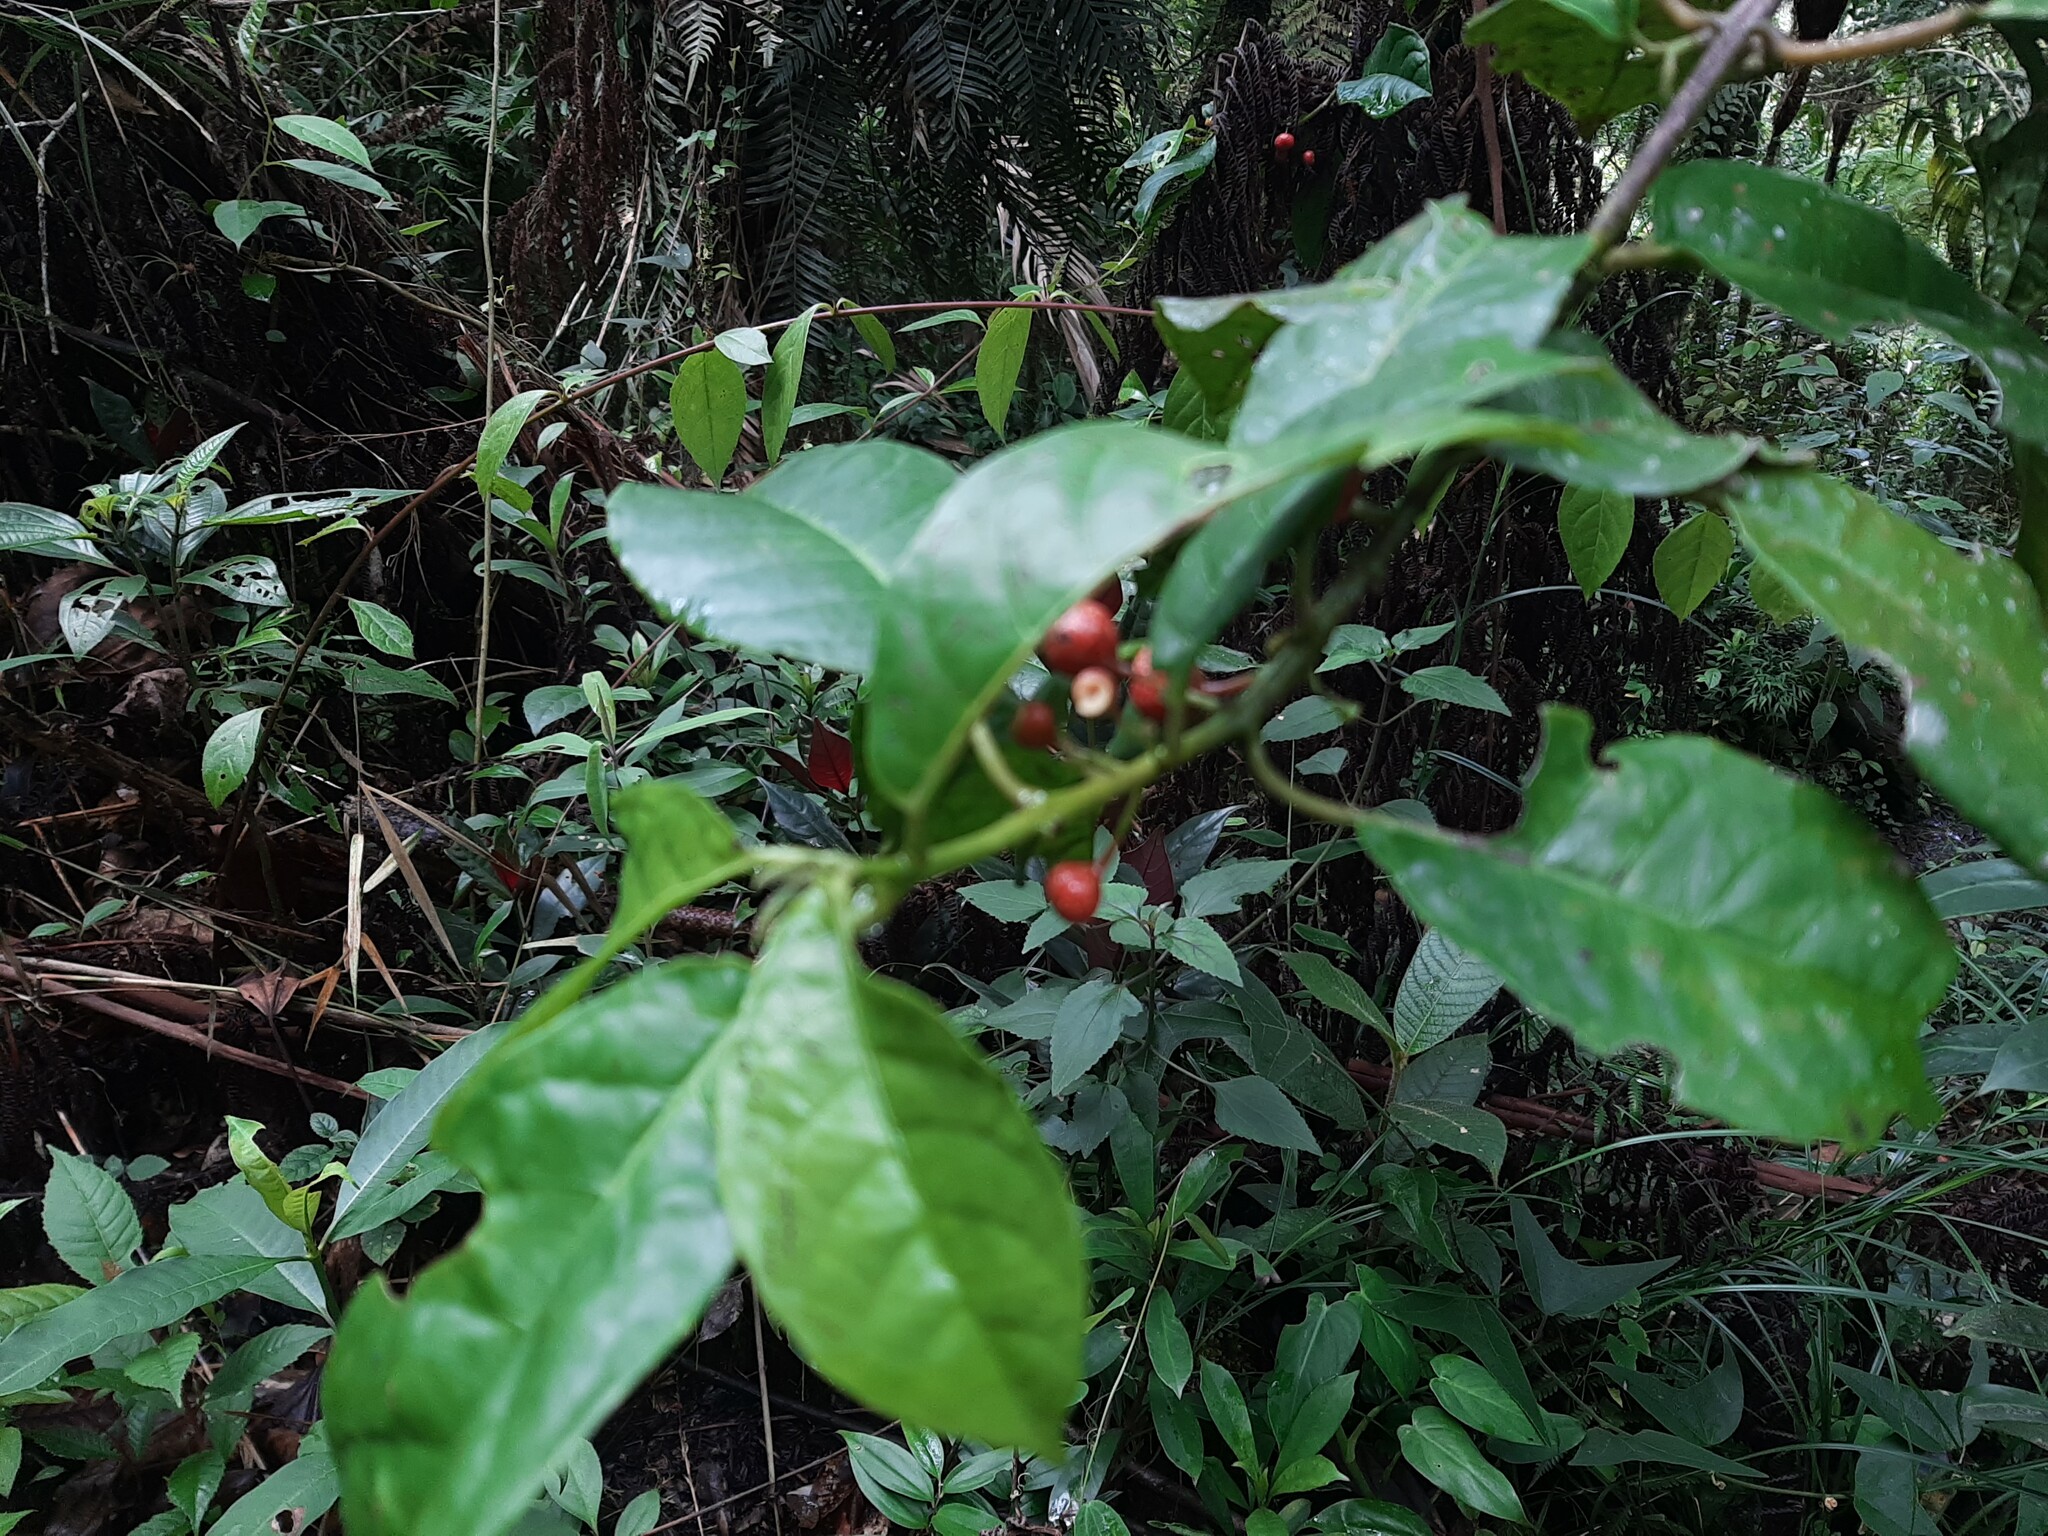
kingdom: Plantae
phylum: Tracheophyta
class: Magnoliopsida
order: Laurales
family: Siparunaceae
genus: Siparuna
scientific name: Siparuna thecaphora
